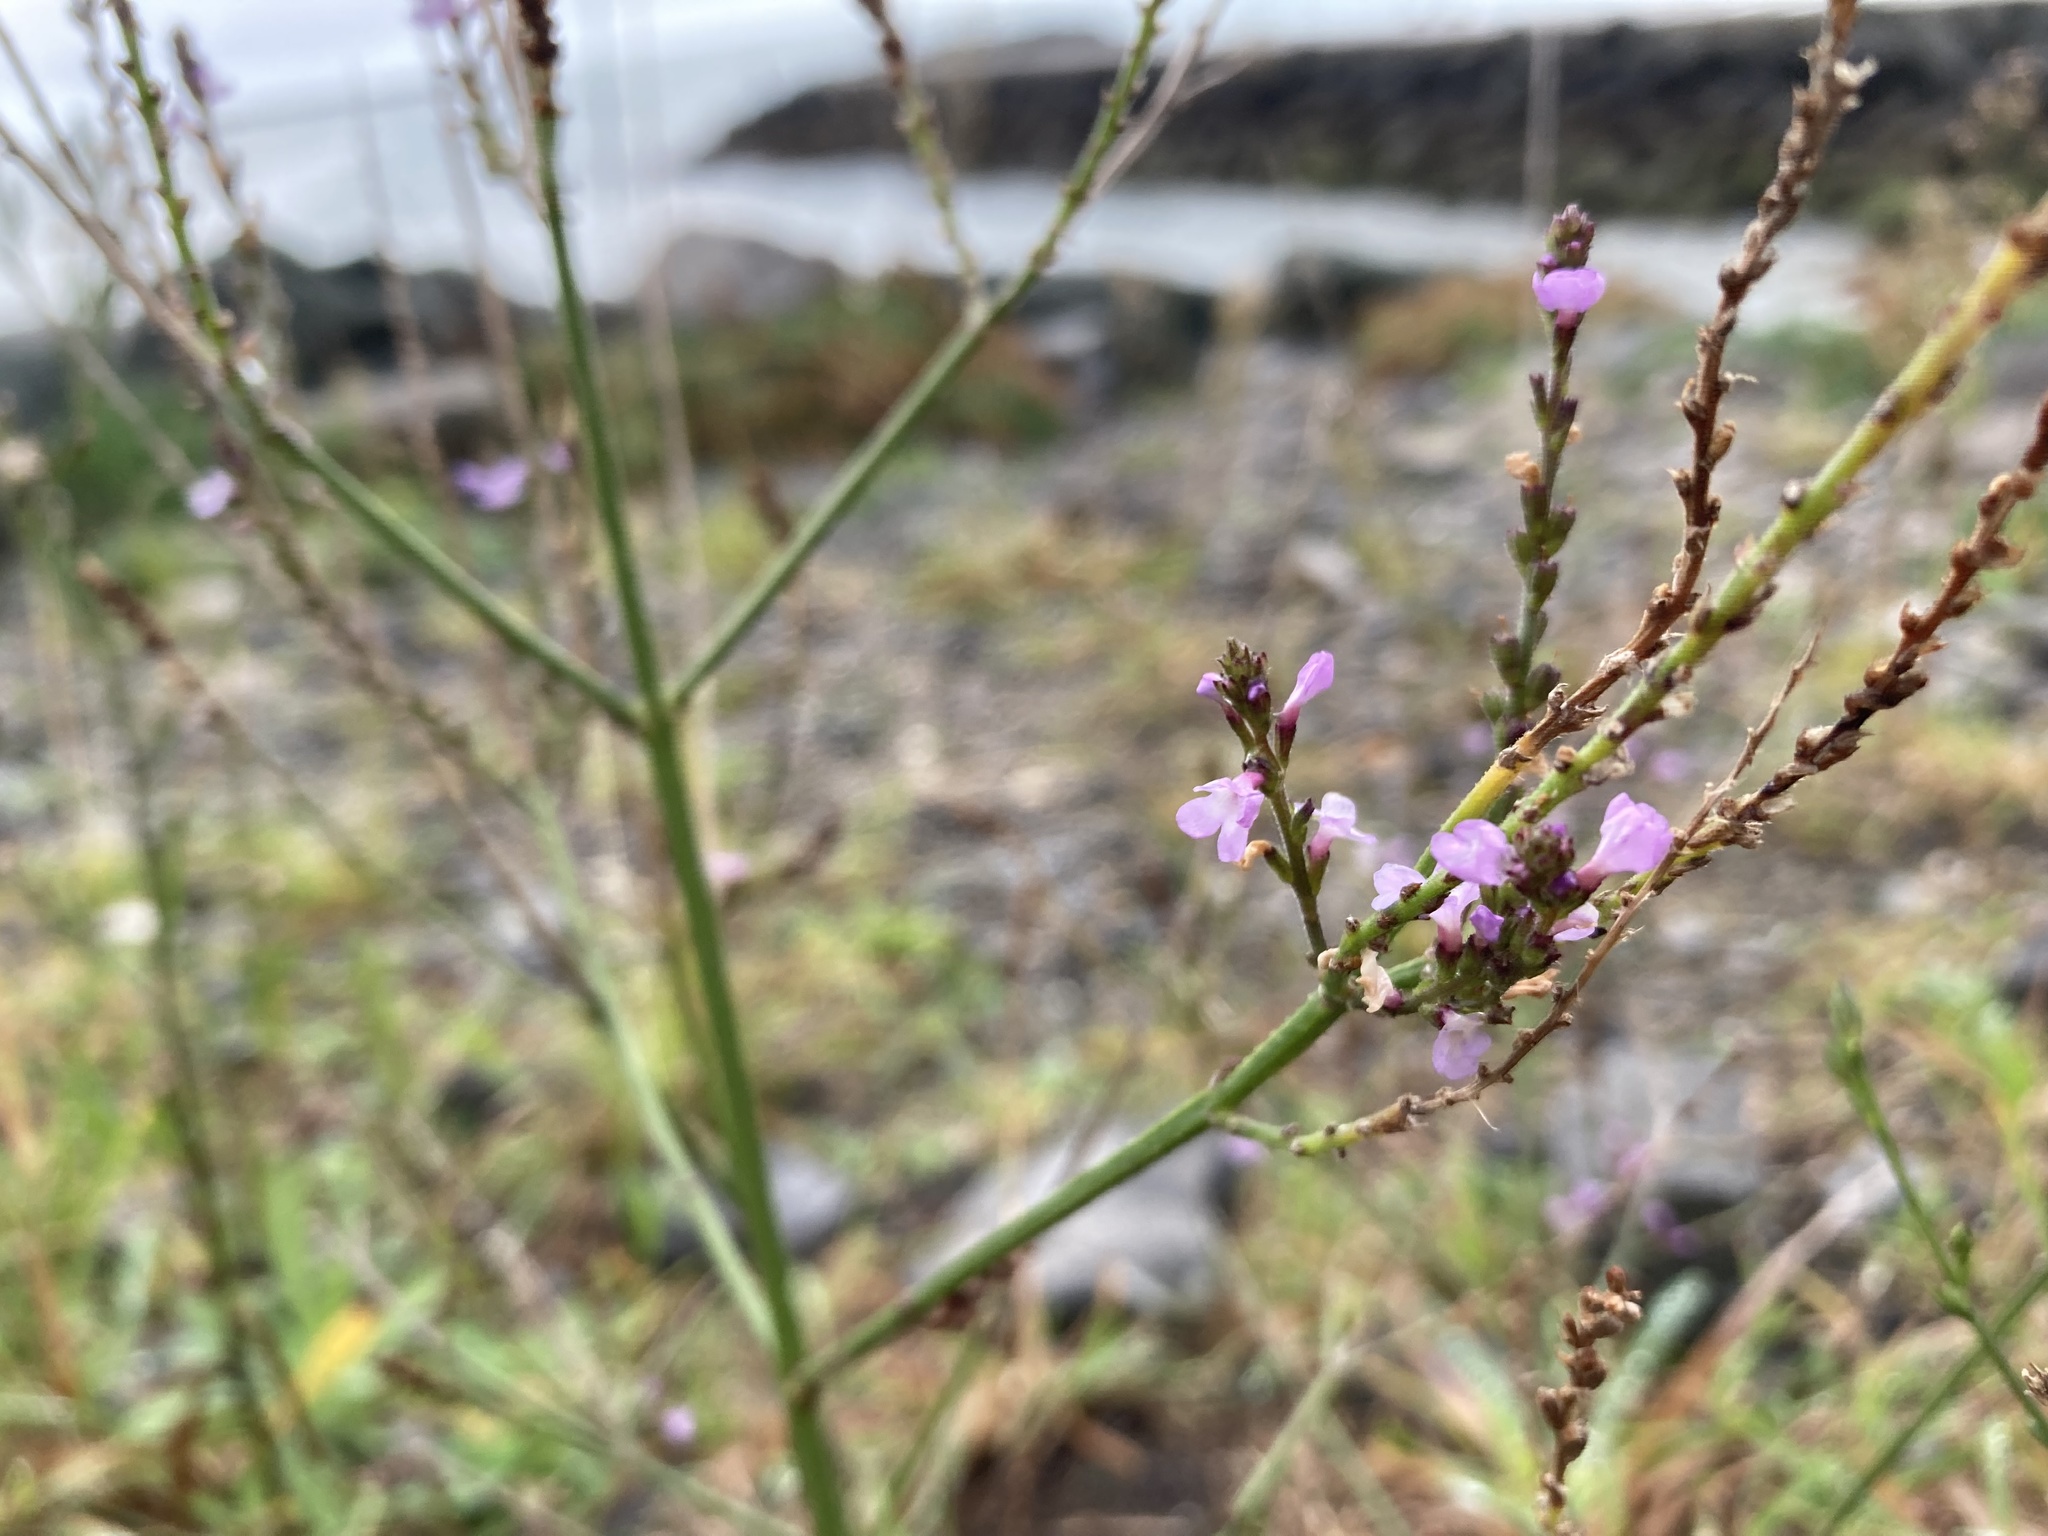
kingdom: Plantae
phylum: Tracheophyta
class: Magnoliopsida
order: Lamiales
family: Verbenaceae
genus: Verbena
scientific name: Verbena officinalis
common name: Vervain
